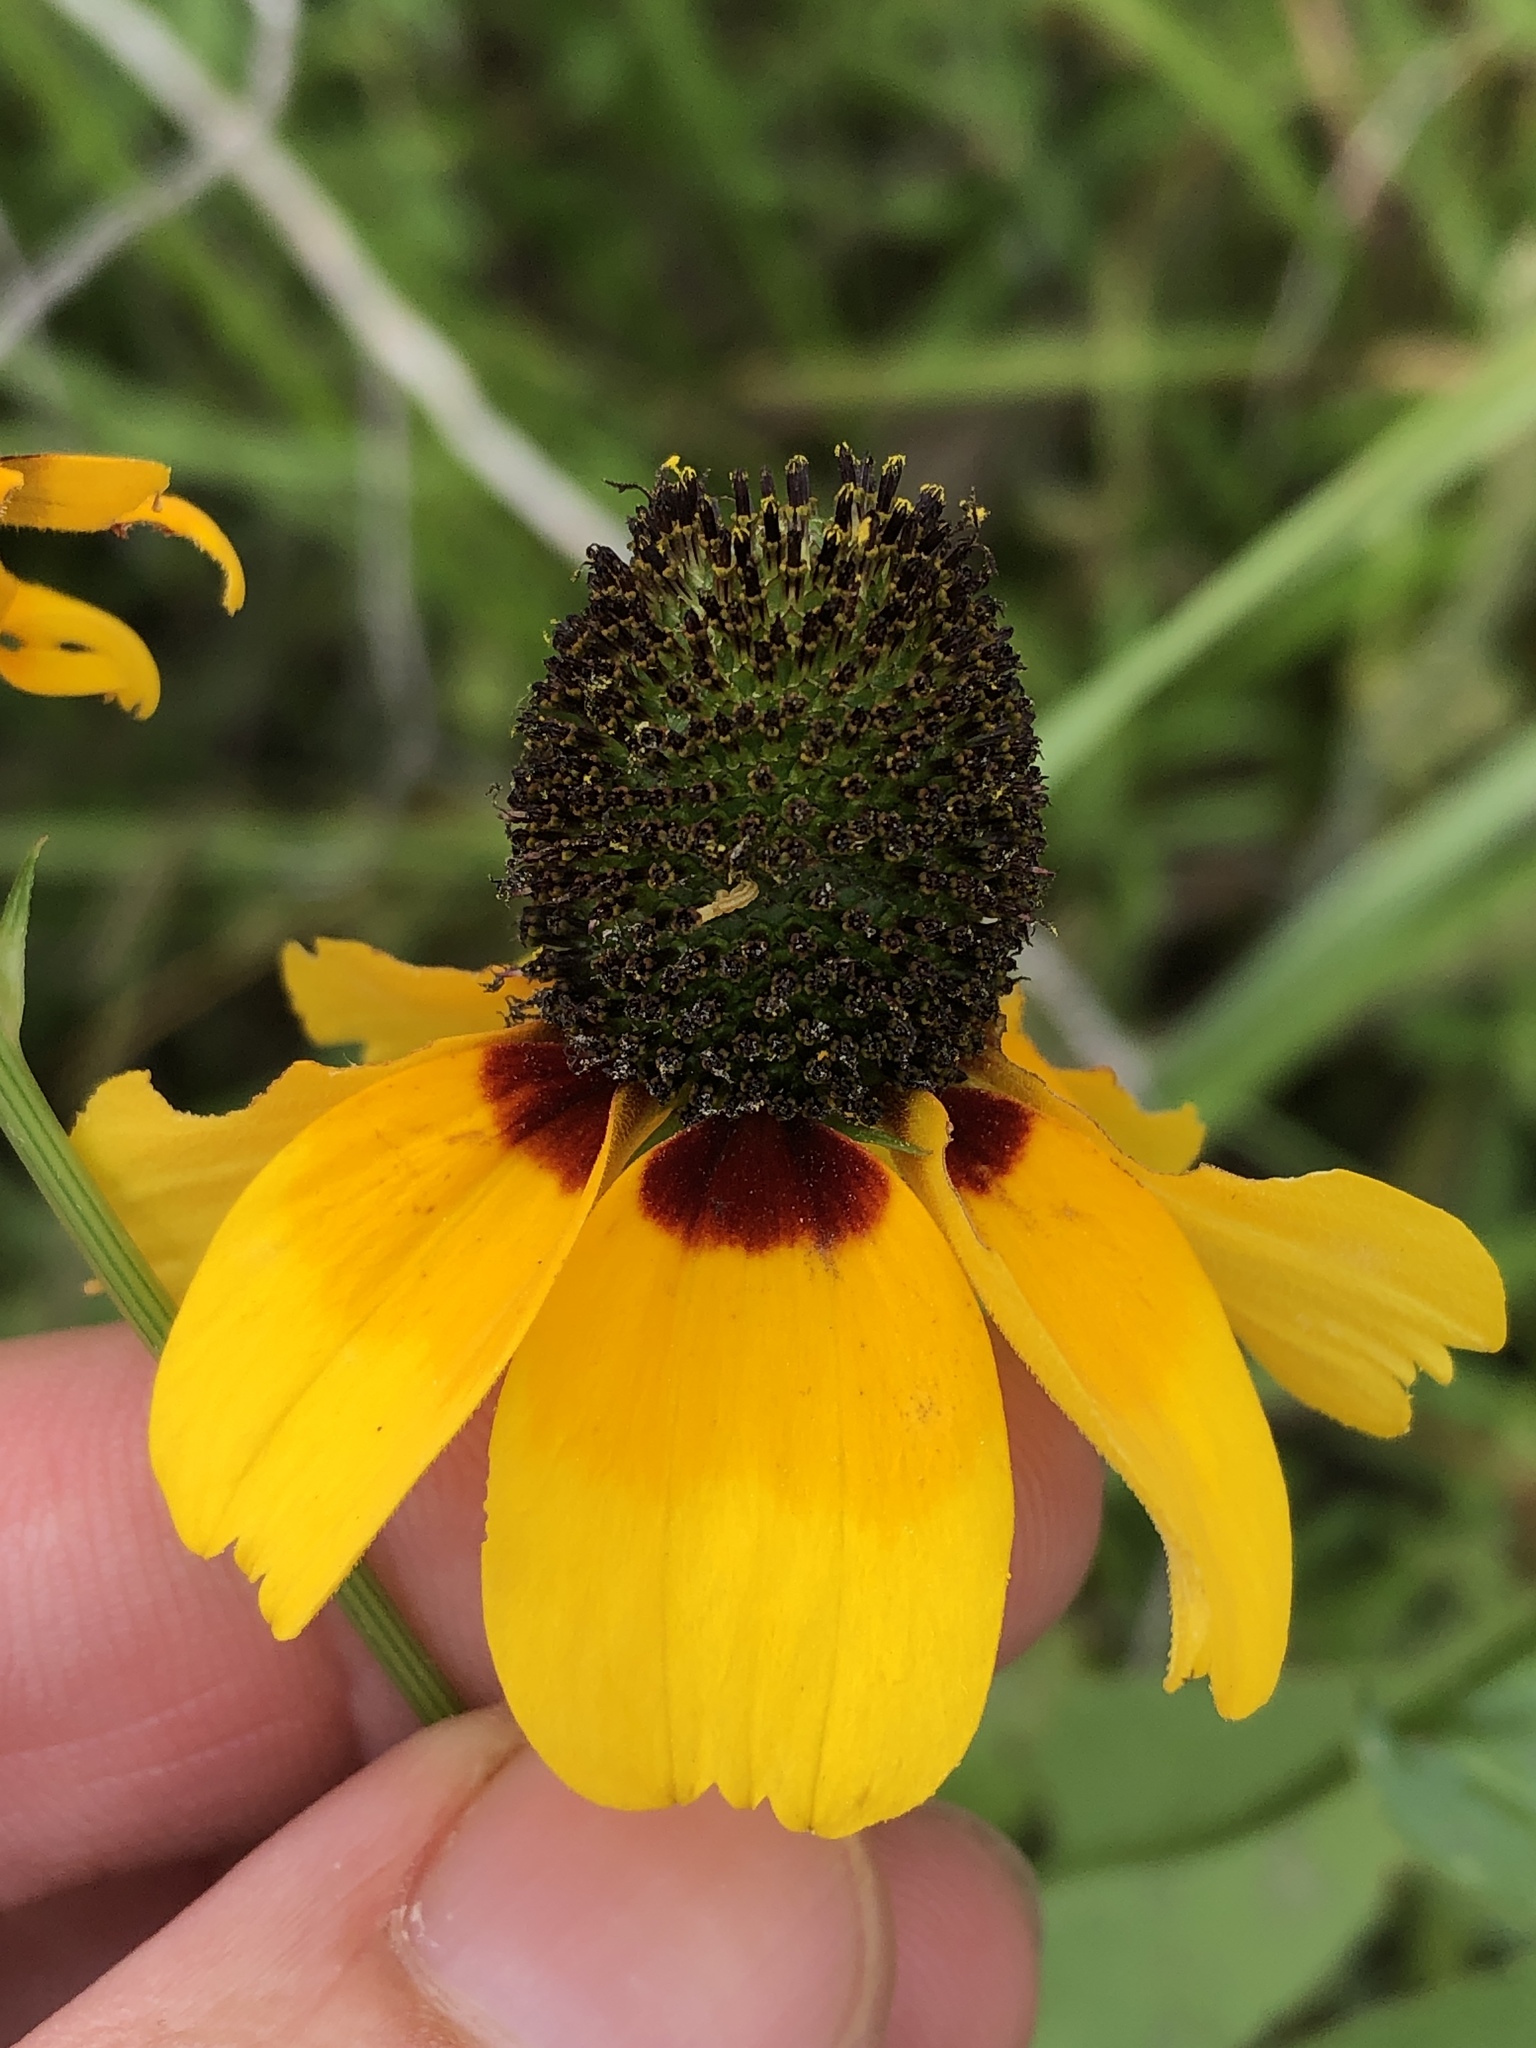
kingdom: Plantae
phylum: Tracheophyta
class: Magnoliopsida
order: Asterales
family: Asteraceae
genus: Rudbeckia
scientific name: Rudbeckia amplexicaulis
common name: Clasping-leaf coneflower
